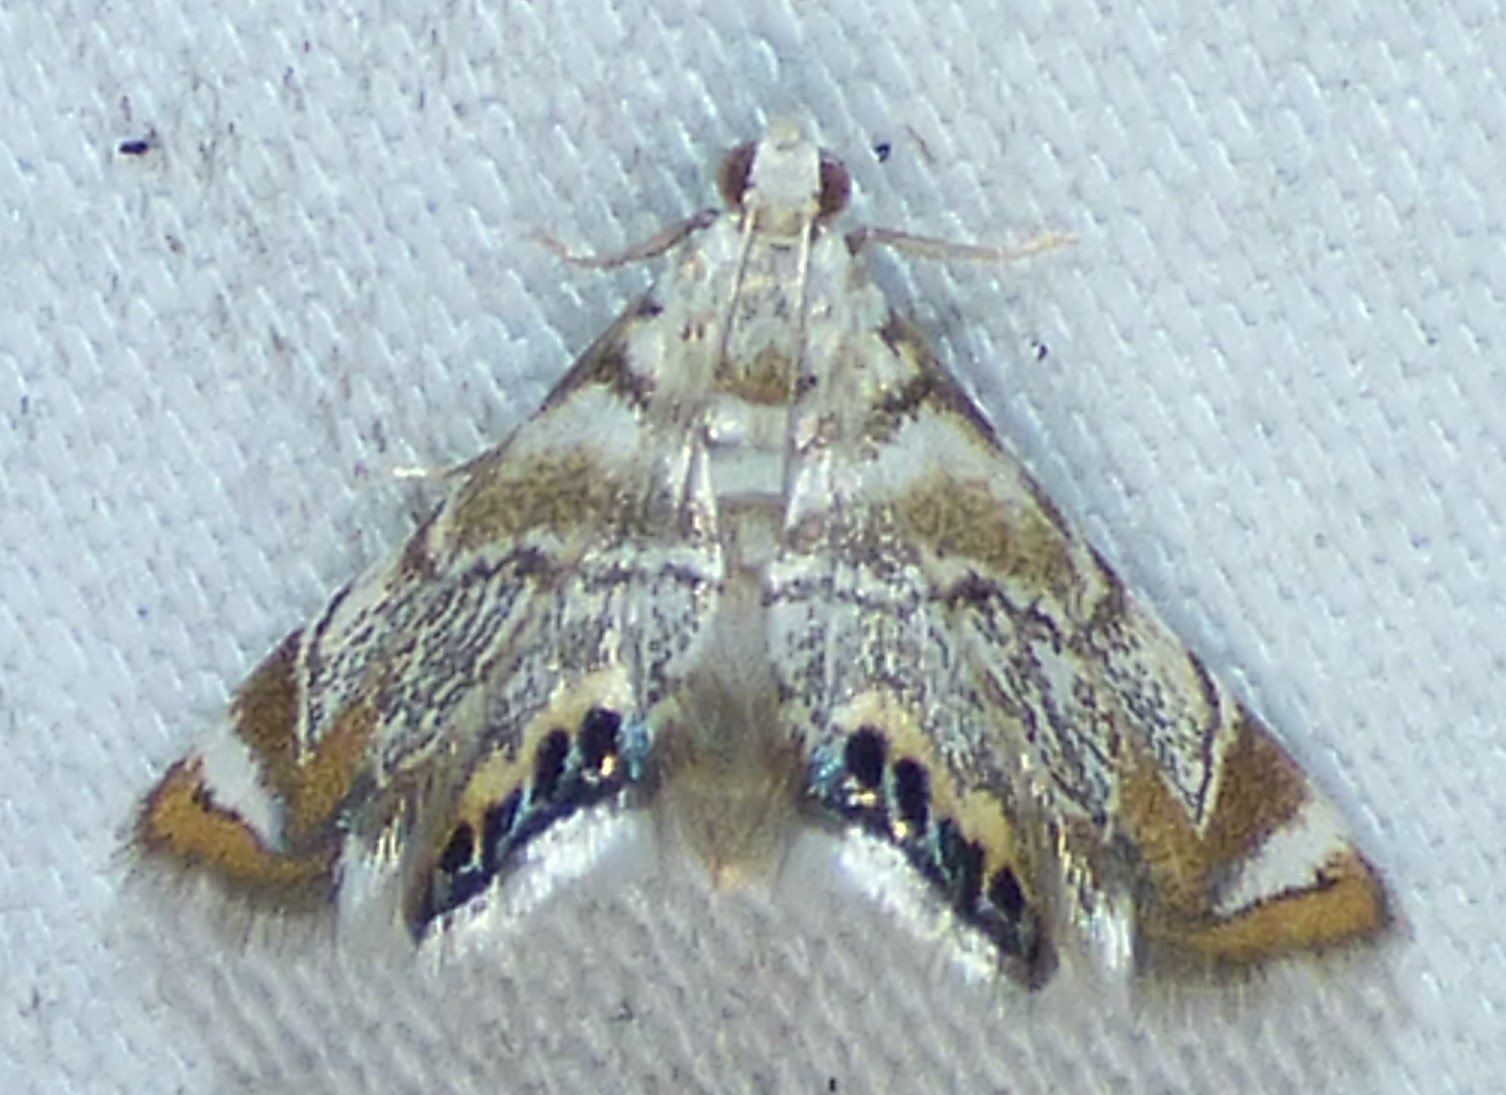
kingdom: Animalia
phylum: Arthropoda
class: Insecta
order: Lepidoptera
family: Crambidae
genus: Eoparargyractis
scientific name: Eoparargyractis irroratalis
